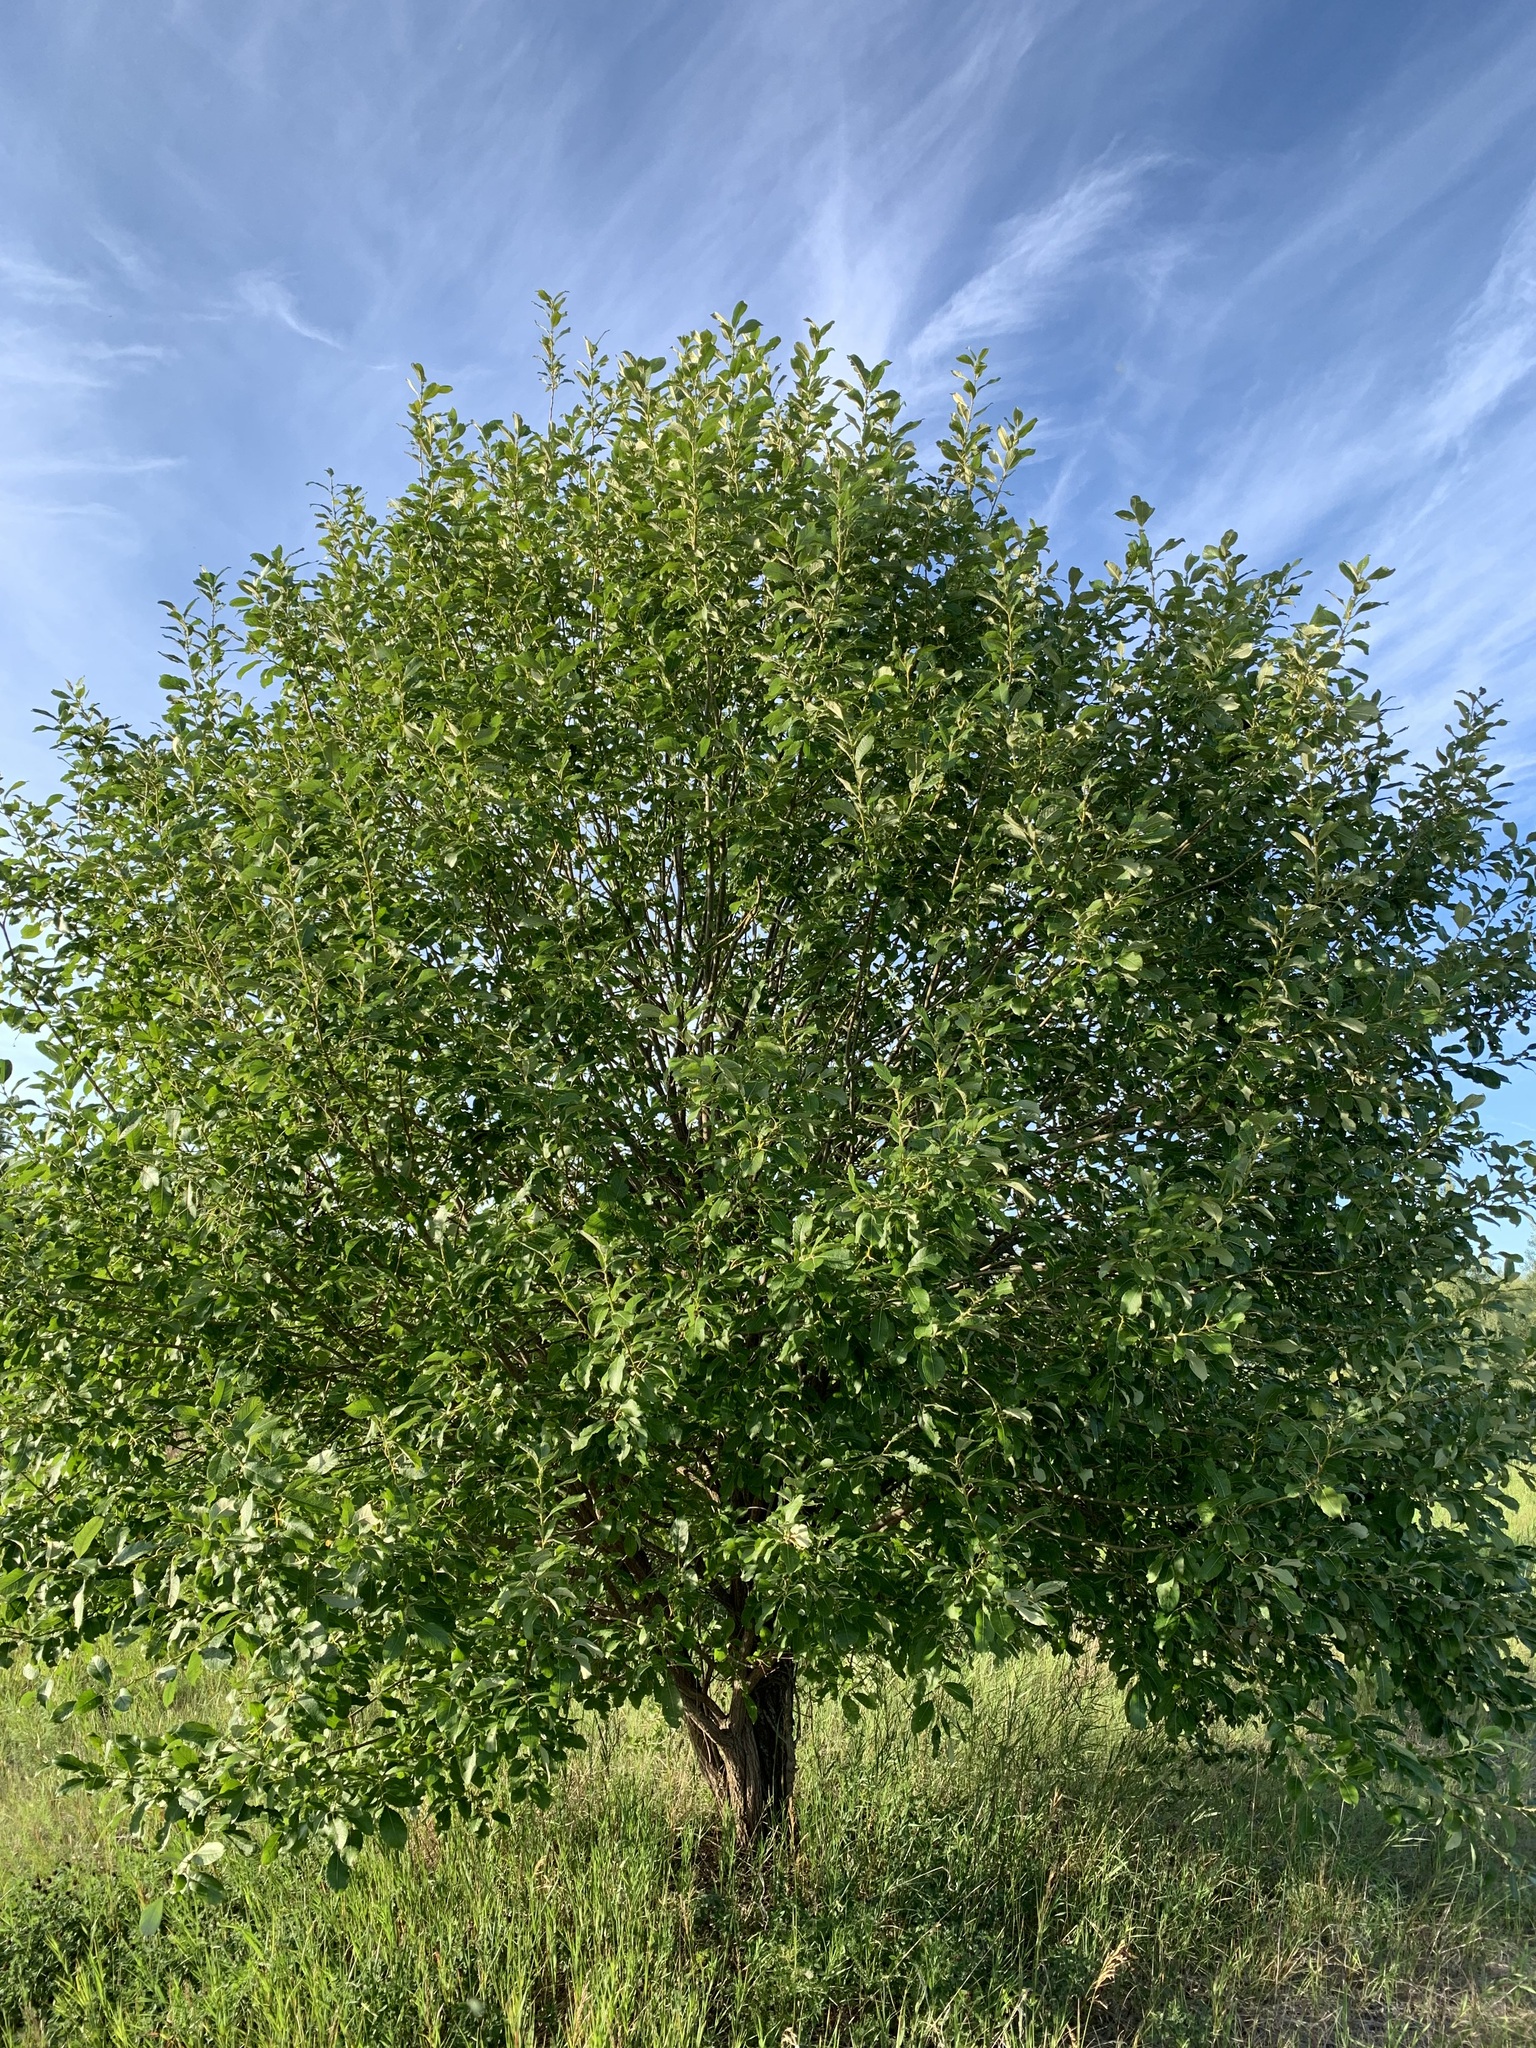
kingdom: Plantae
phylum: Tracheophyta
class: Magnoliopsida
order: Malpighiales
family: Salicaceae
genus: Salix
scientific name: Salix caprea
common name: Goat willow
